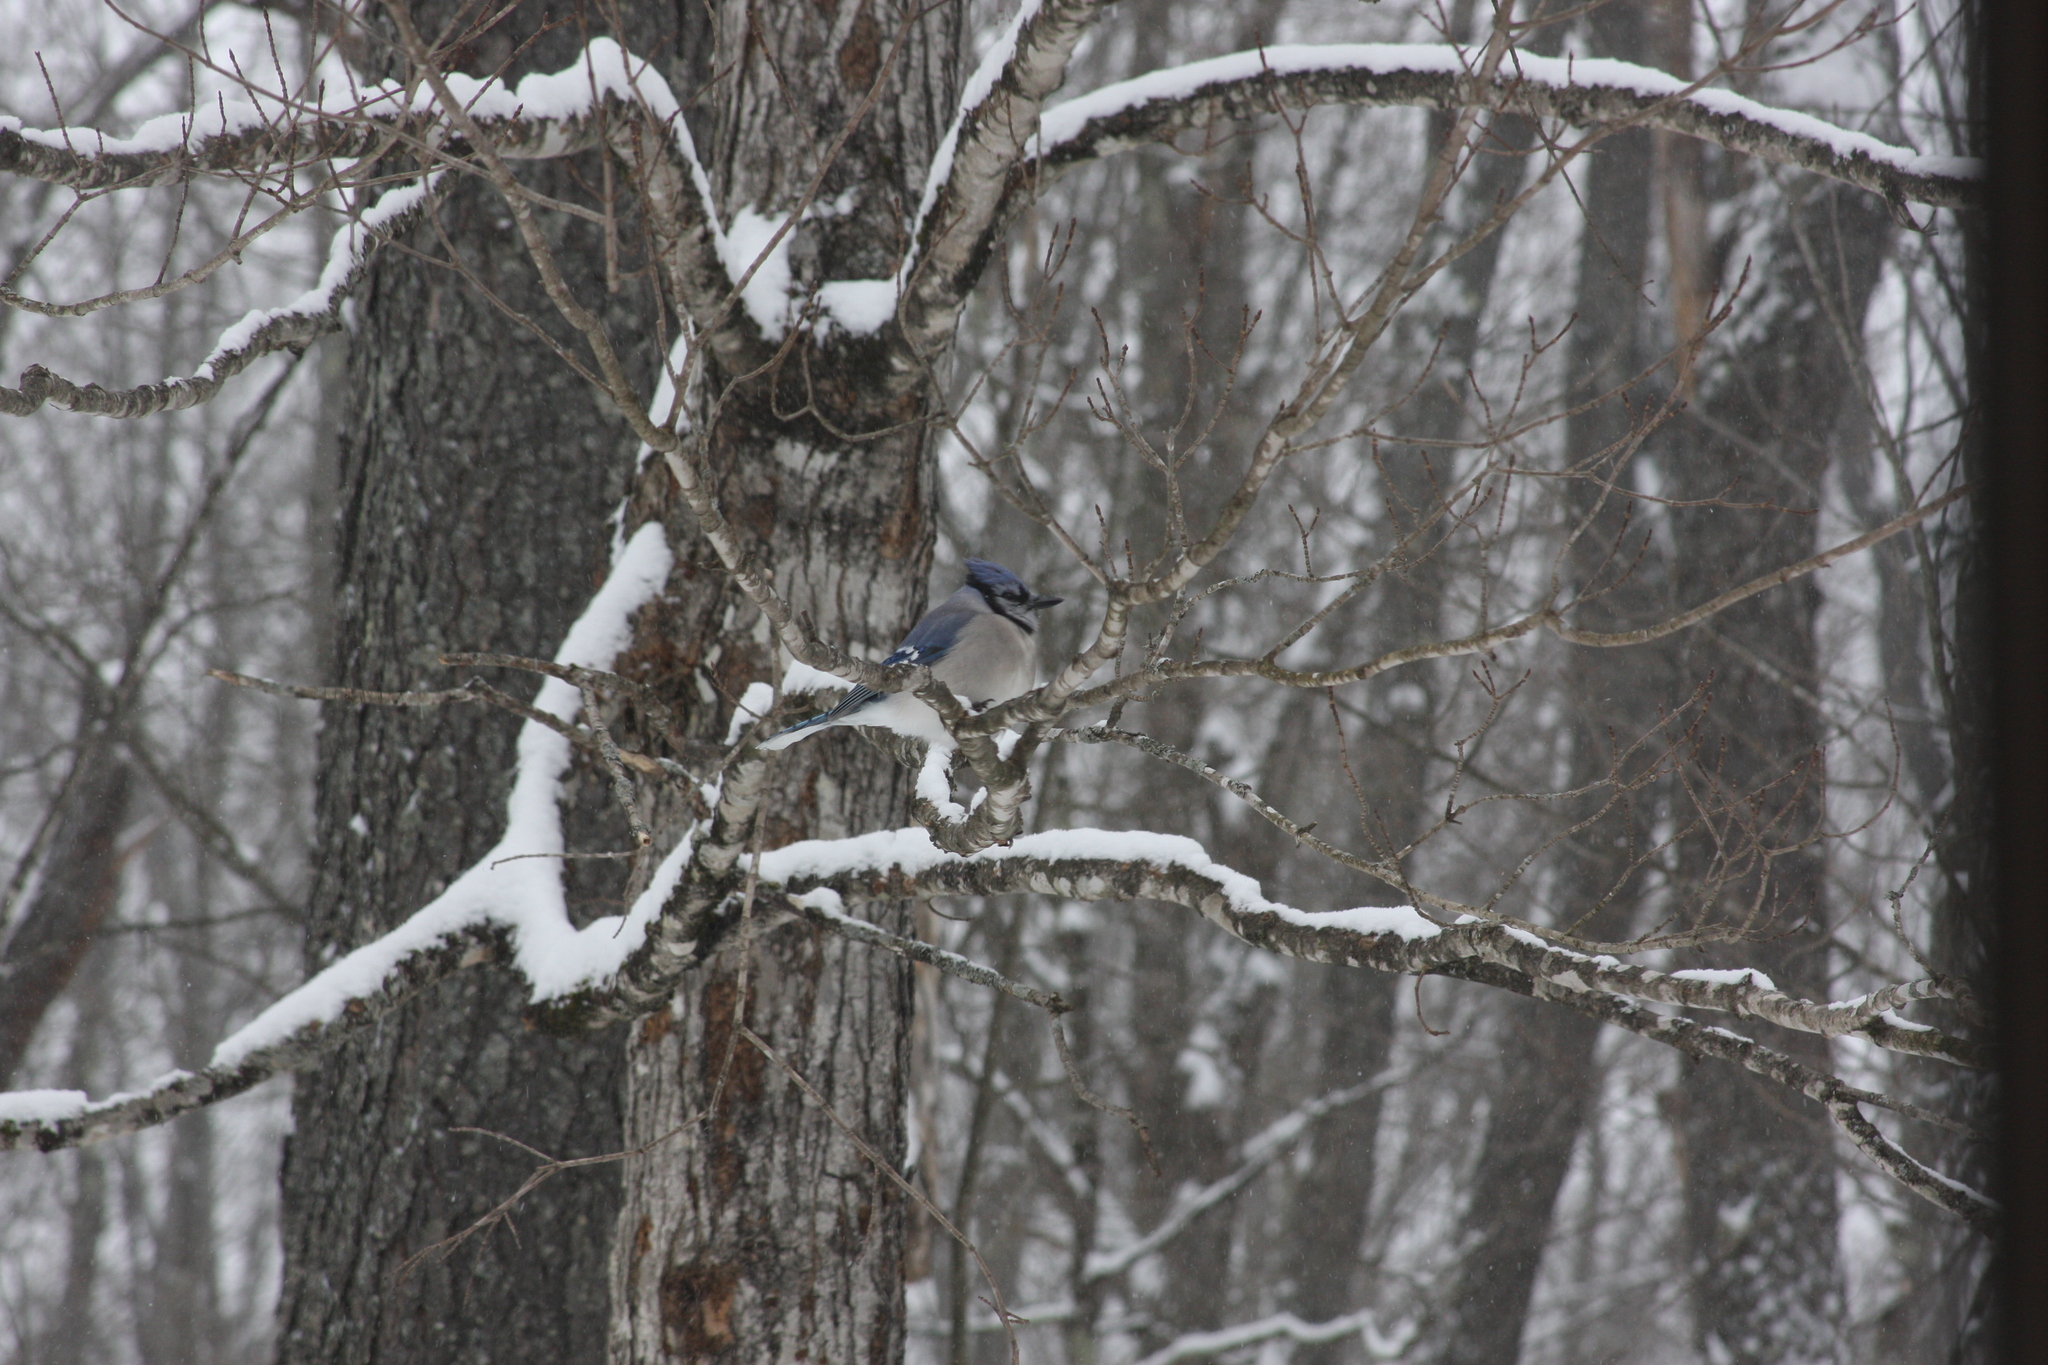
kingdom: Animalia
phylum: Chordata
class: Aves
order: Passeriformes
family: Corvidae
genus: Cyanocitta
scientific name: Cyanocitta cristata
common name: Blue jay
